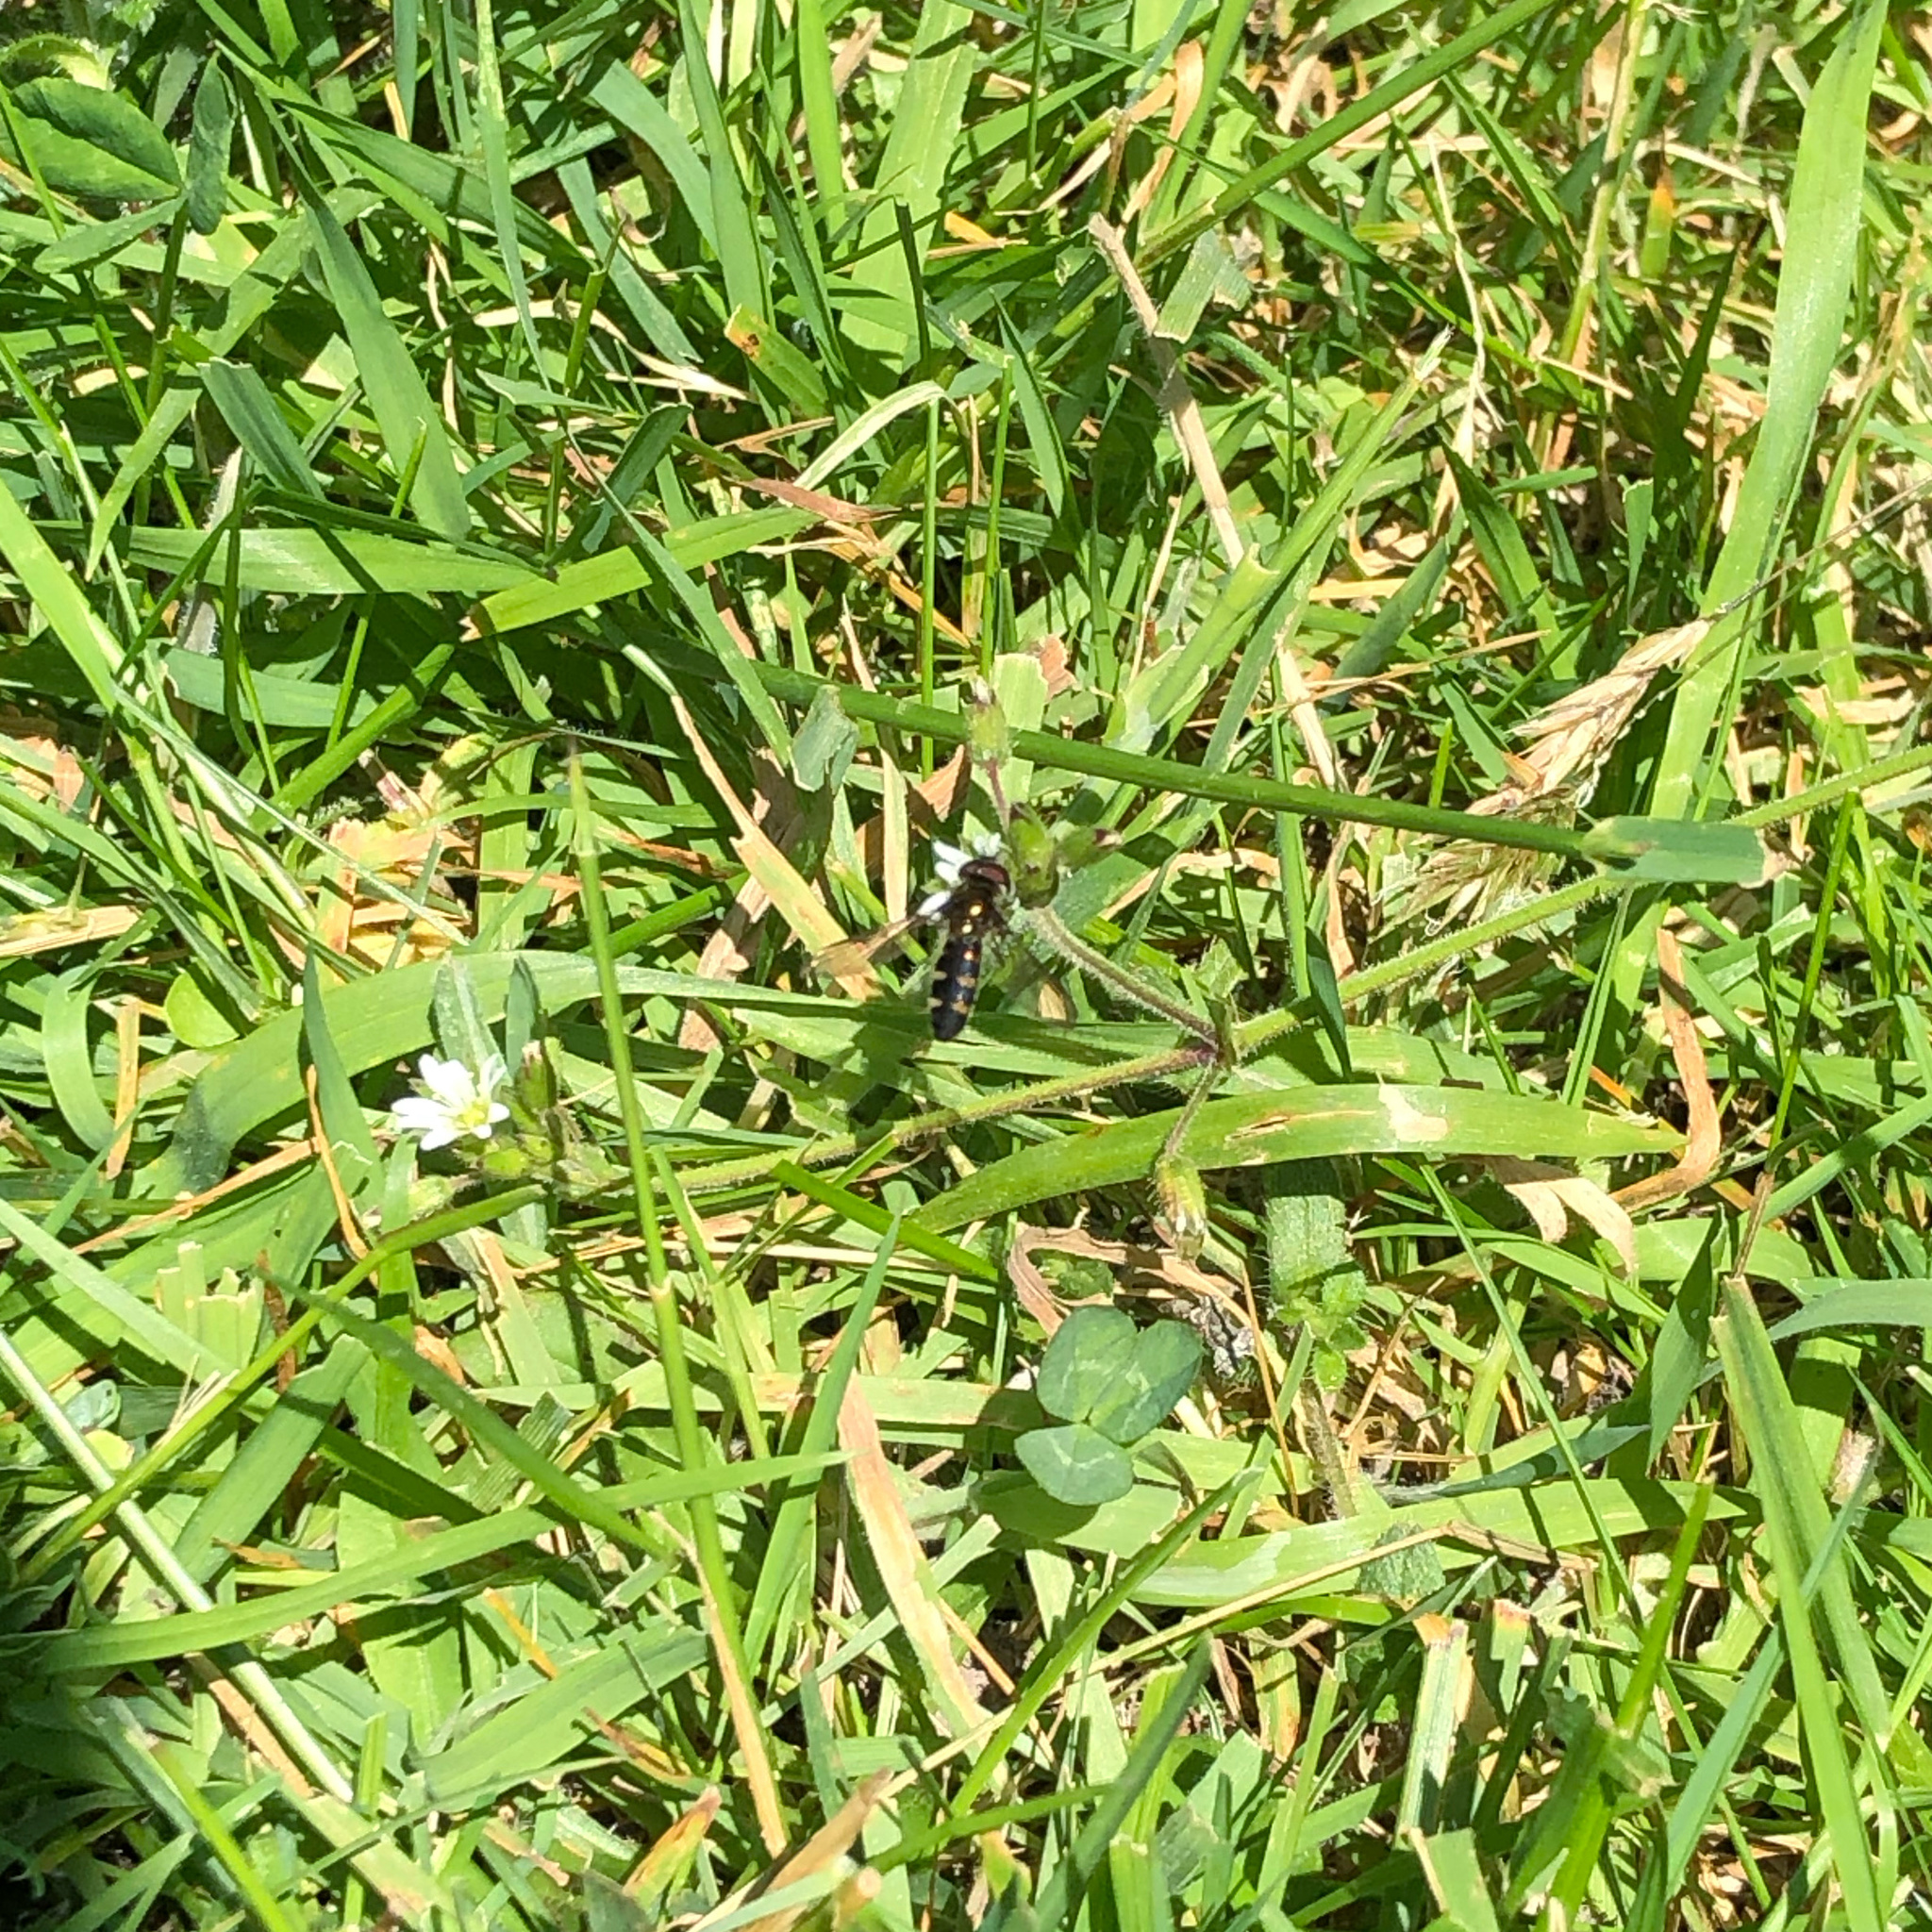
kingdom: Animalia
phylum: Arthropoda
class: Insecta
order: Diptera
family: Syrphidae
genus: Melangyna
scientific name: Melangyna novaezelandiae
